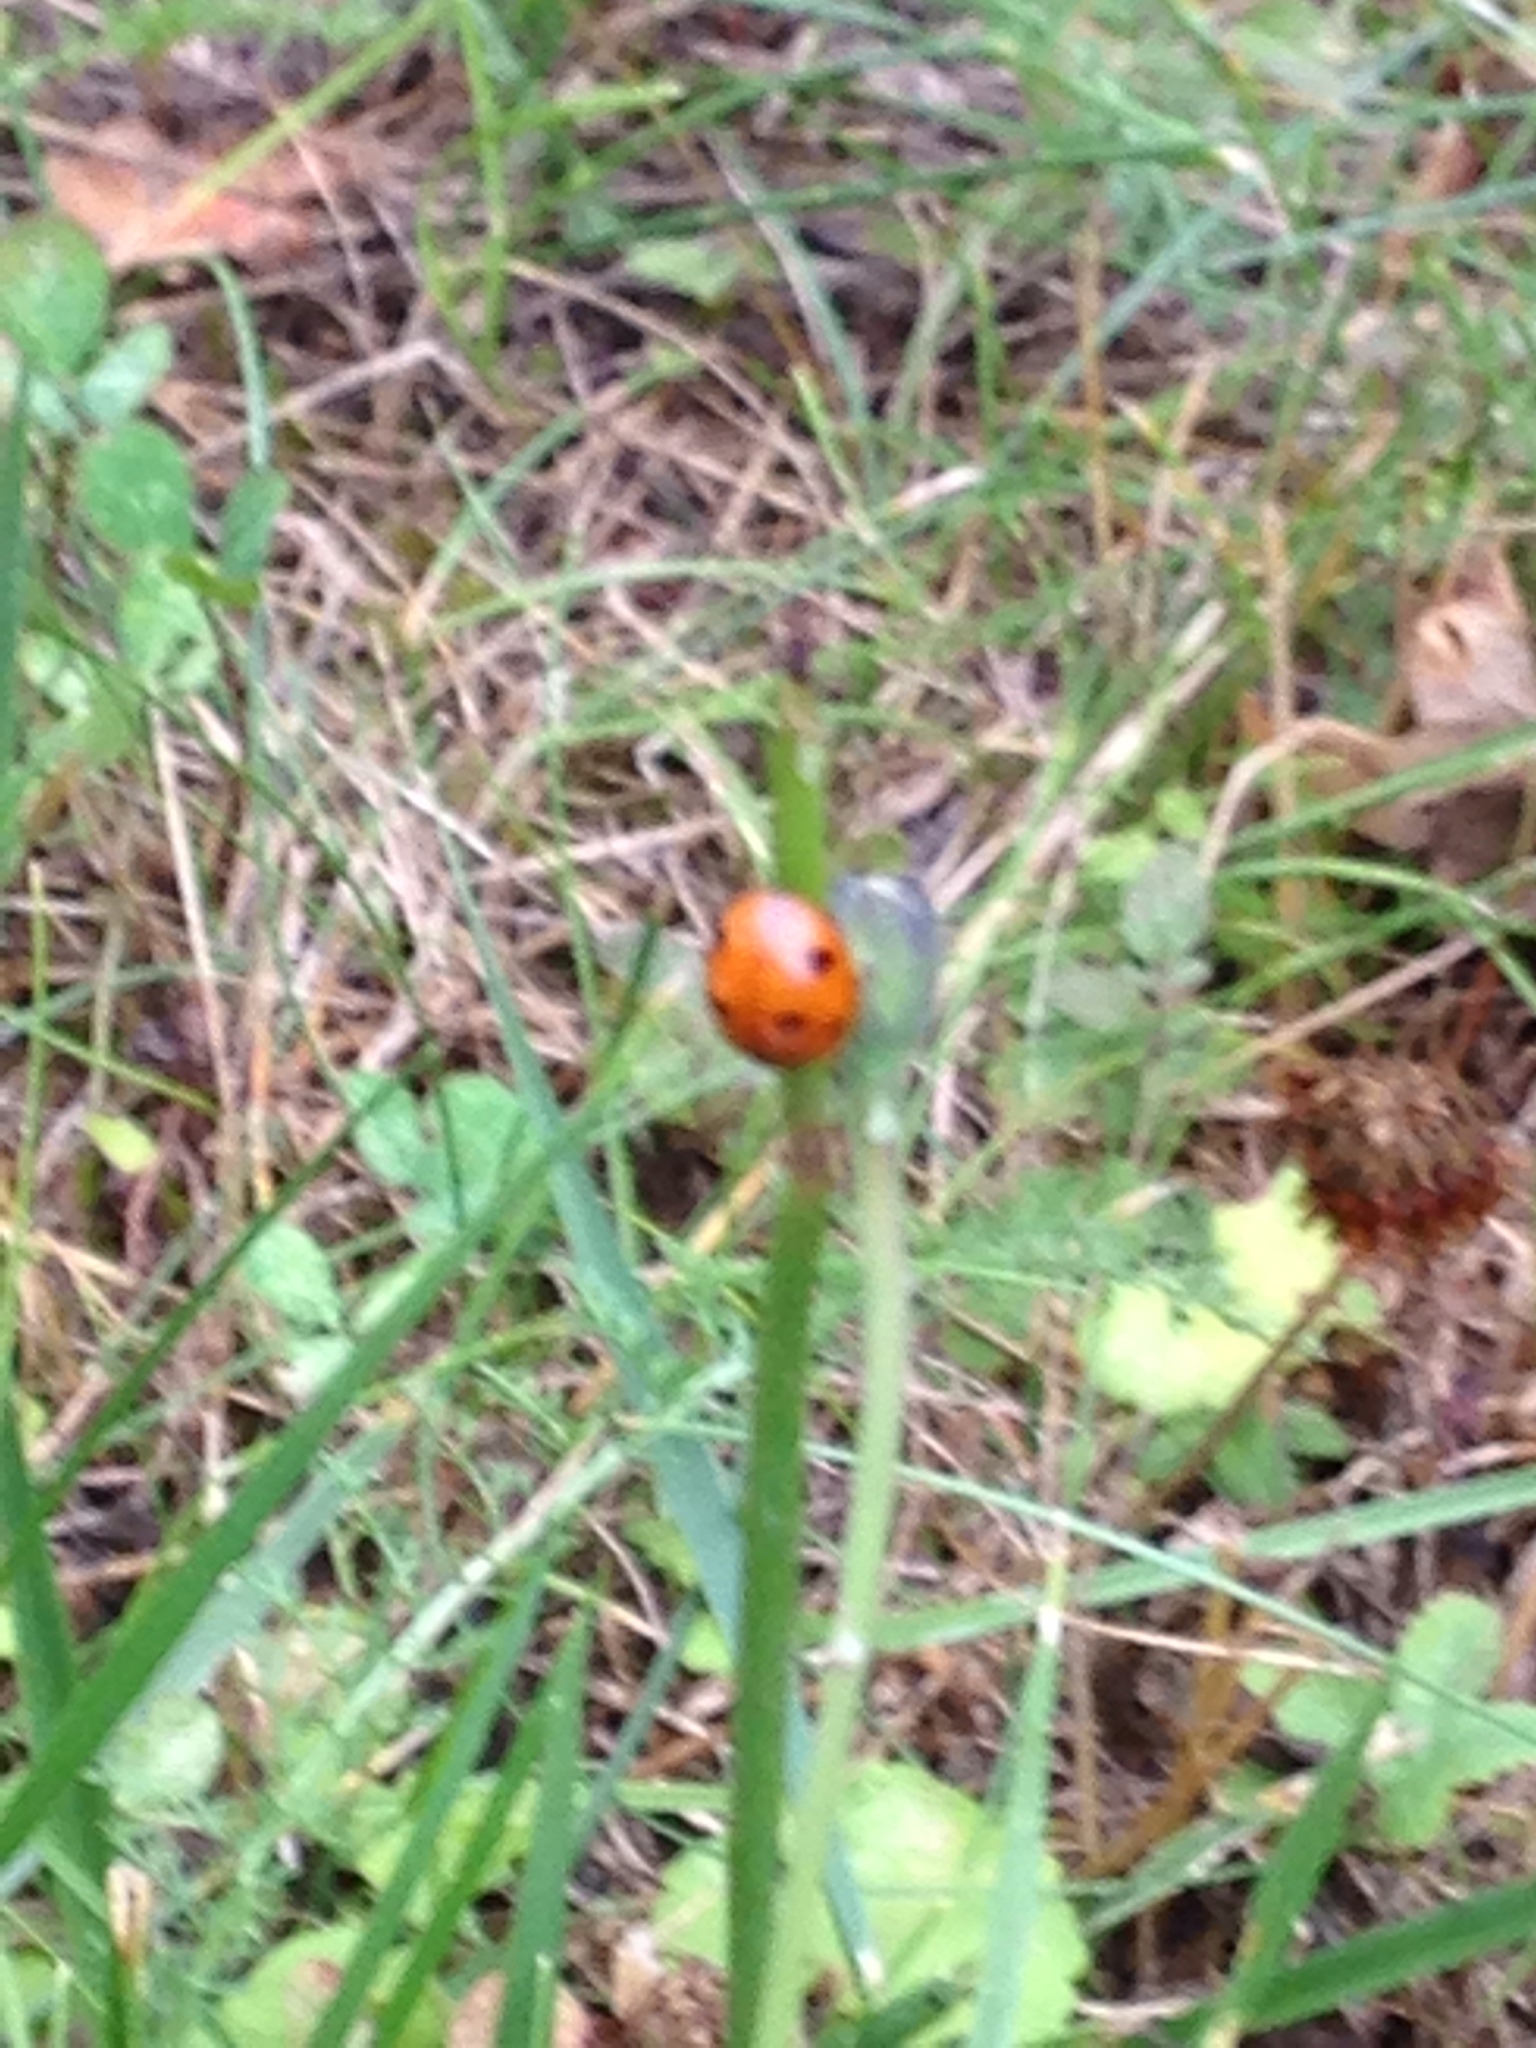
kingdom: Animalia
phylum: Arthropoda
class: Insecta
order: Coleoptera
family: Coccinellidae
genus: Coccinella
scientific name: Coccinella septempunctata
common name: Sevenspotted lady beetle
